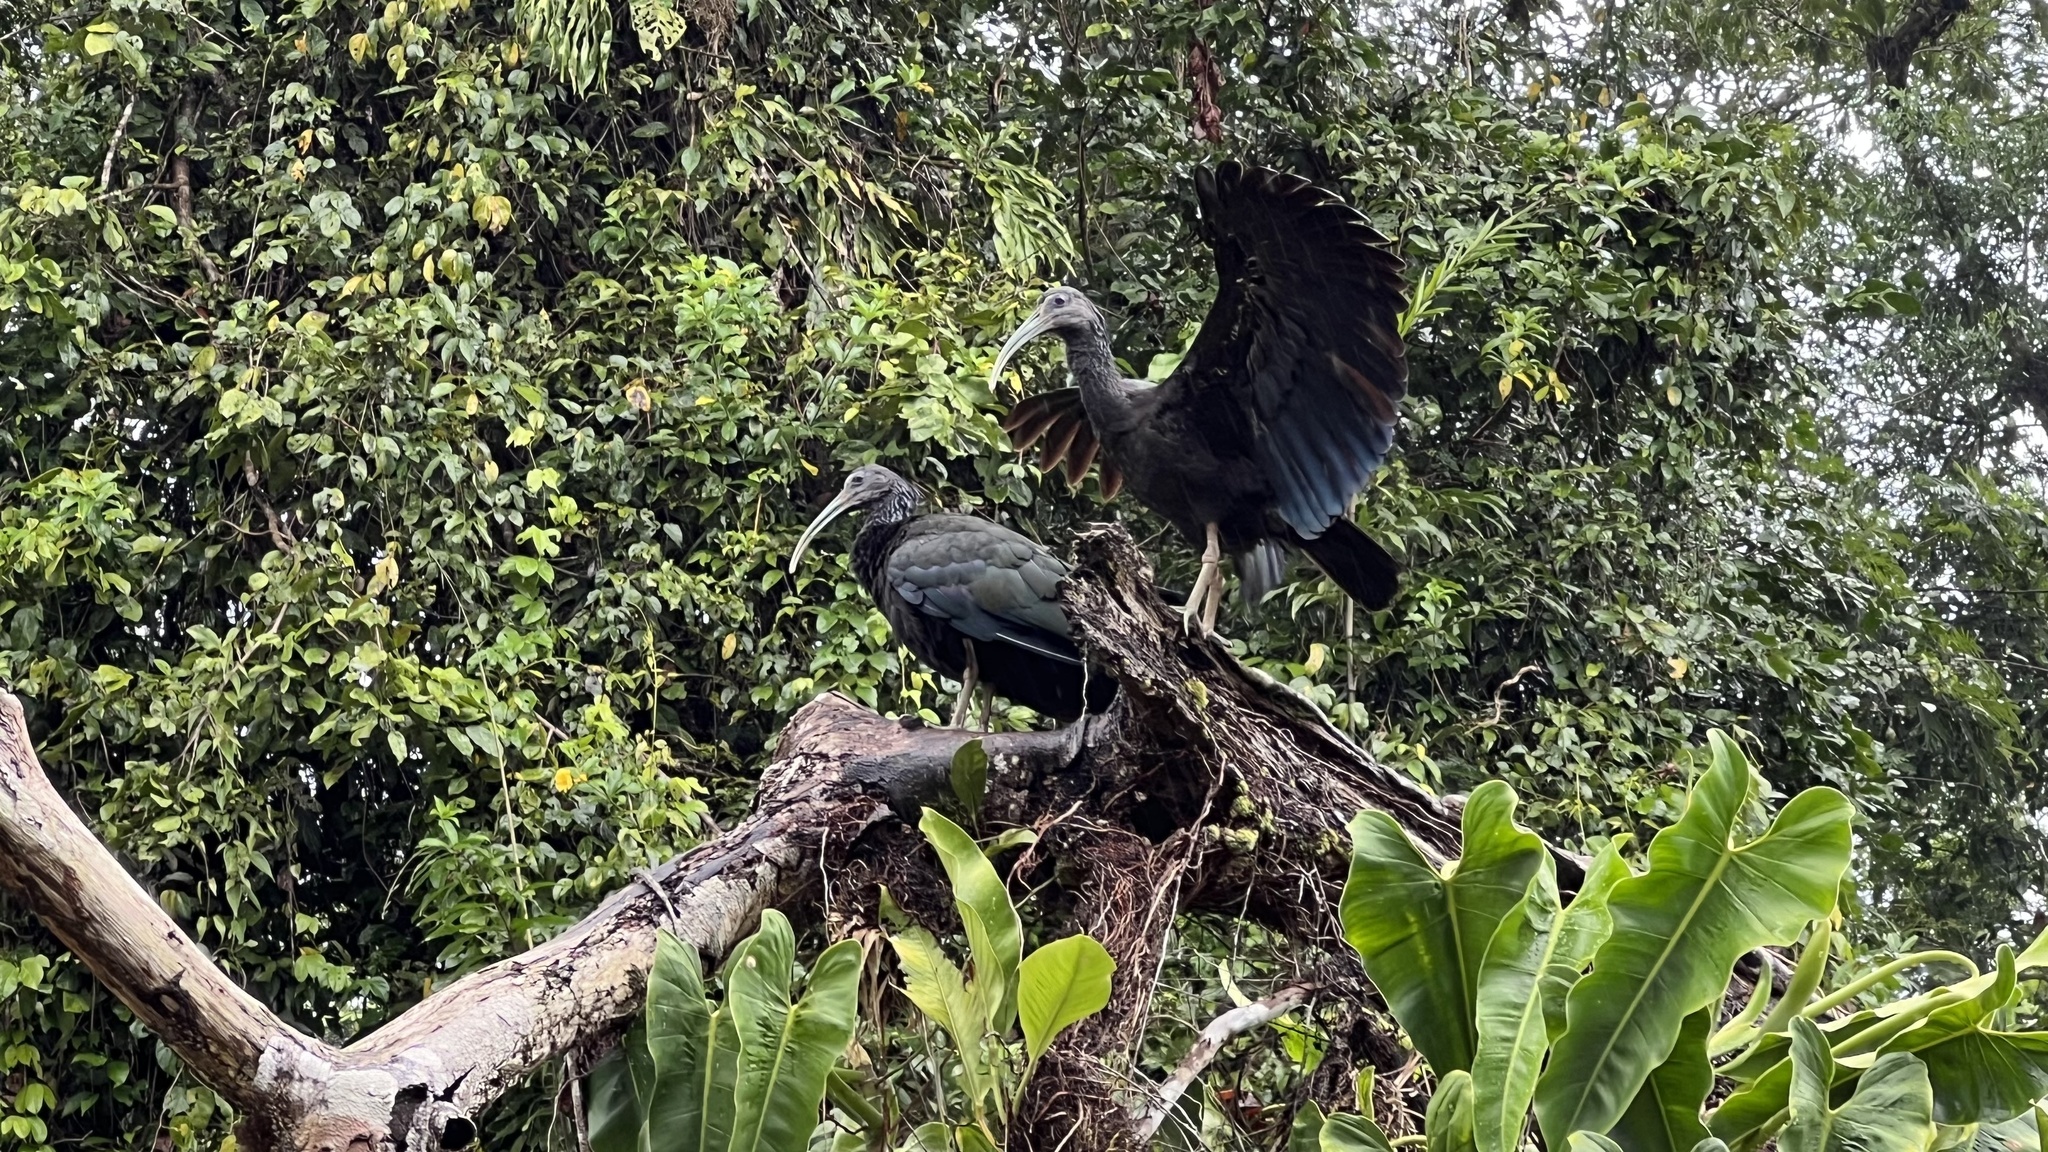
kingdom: Animalia
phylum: Chordata
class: Aves
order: Pelecaniformes
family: Threskiornithidae
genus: Mesembrinibis
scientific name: Mesembrinibis cayennensis
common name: Green ibis
